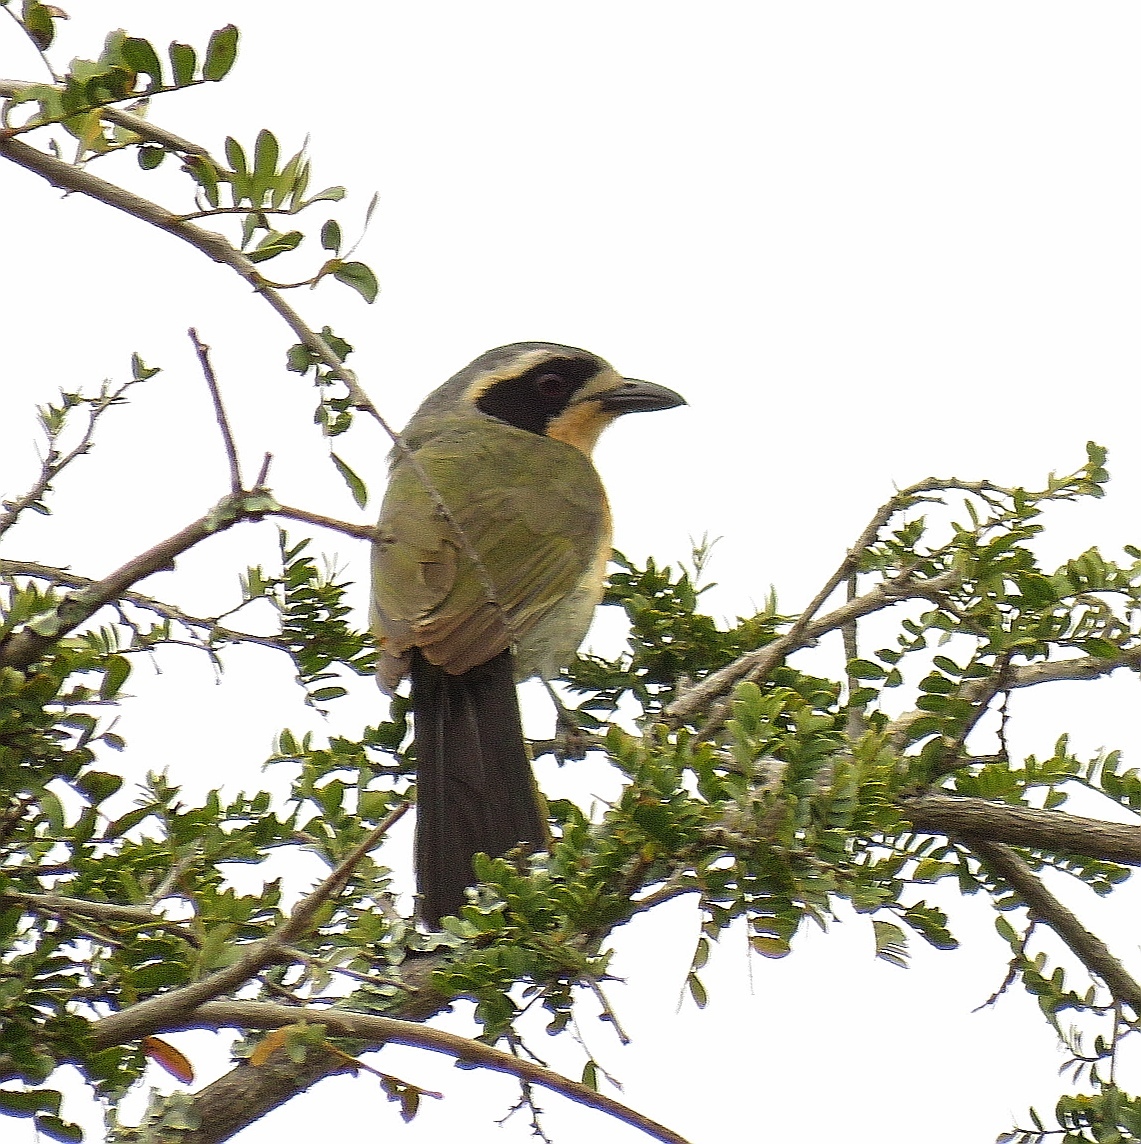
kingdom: Animalia
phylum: Chordata
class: Aves
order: Passeriformes
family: Malaconotidae
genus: Chlorophoneus
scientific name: Chlorophoneus olivaceus
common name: Olive bushshrike
